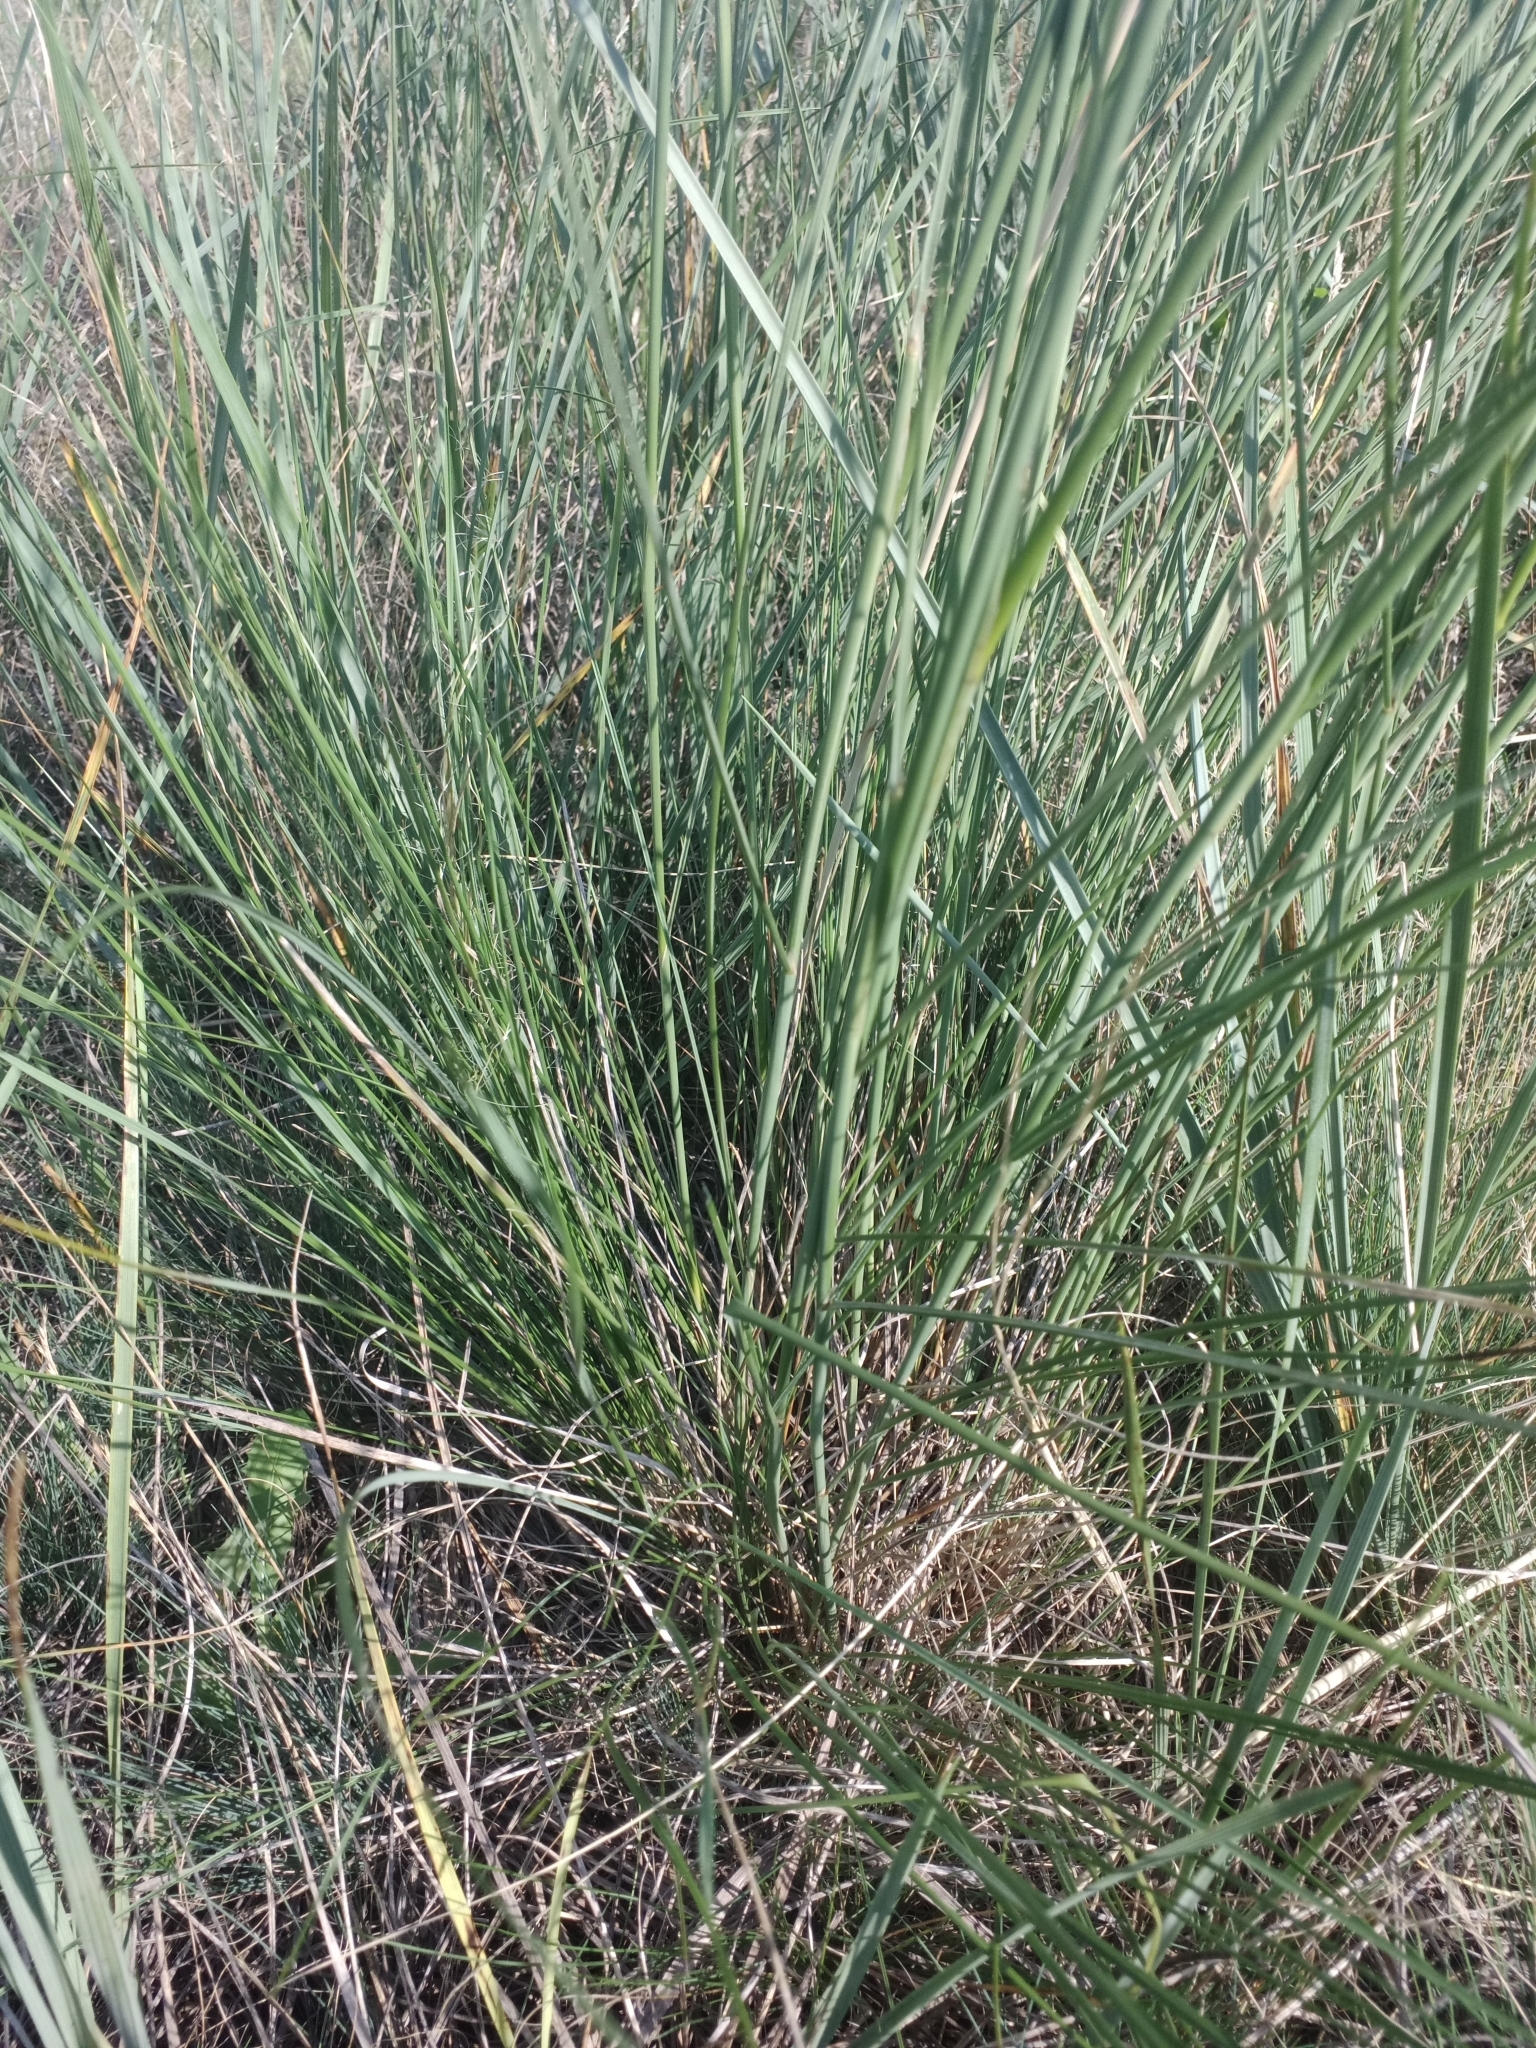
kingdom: Plantae
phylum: Tracheophyta
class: Liliopsida
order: Poales
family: Poaceae
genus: Stipa
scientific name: Stipa capillata
